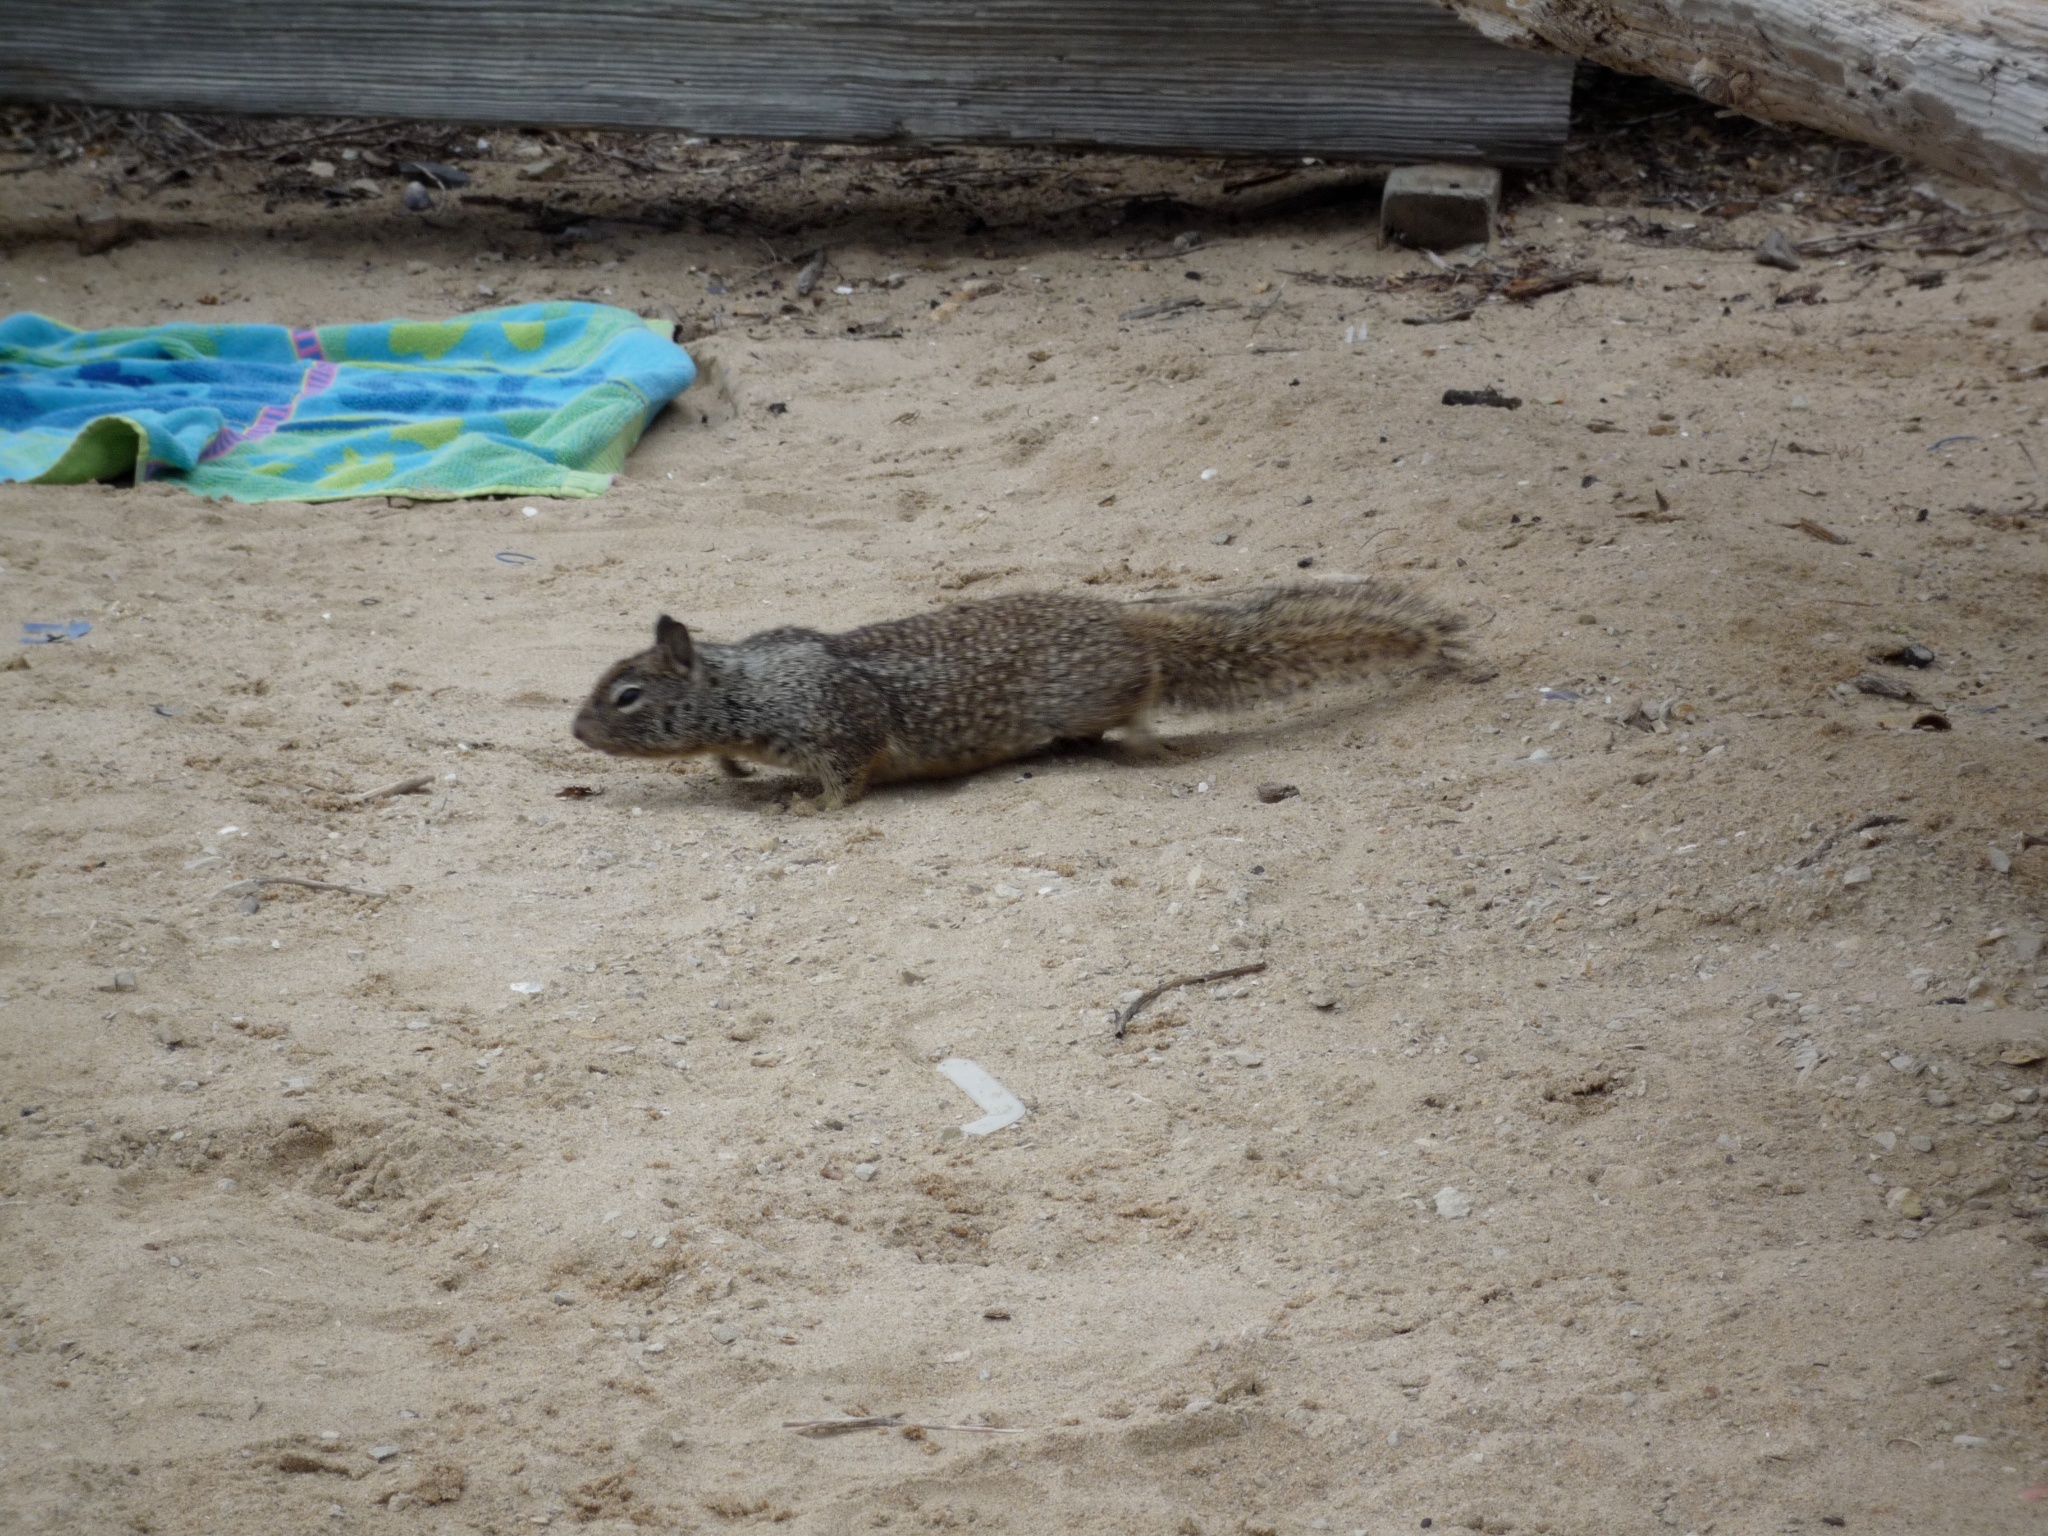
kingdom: Animalia
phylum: Chordata
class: Mammalia
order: Rodentia
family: Sciuridae
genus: Otospermophilus
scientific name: Otospermophilus beecheyi
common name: California ground squirrel
